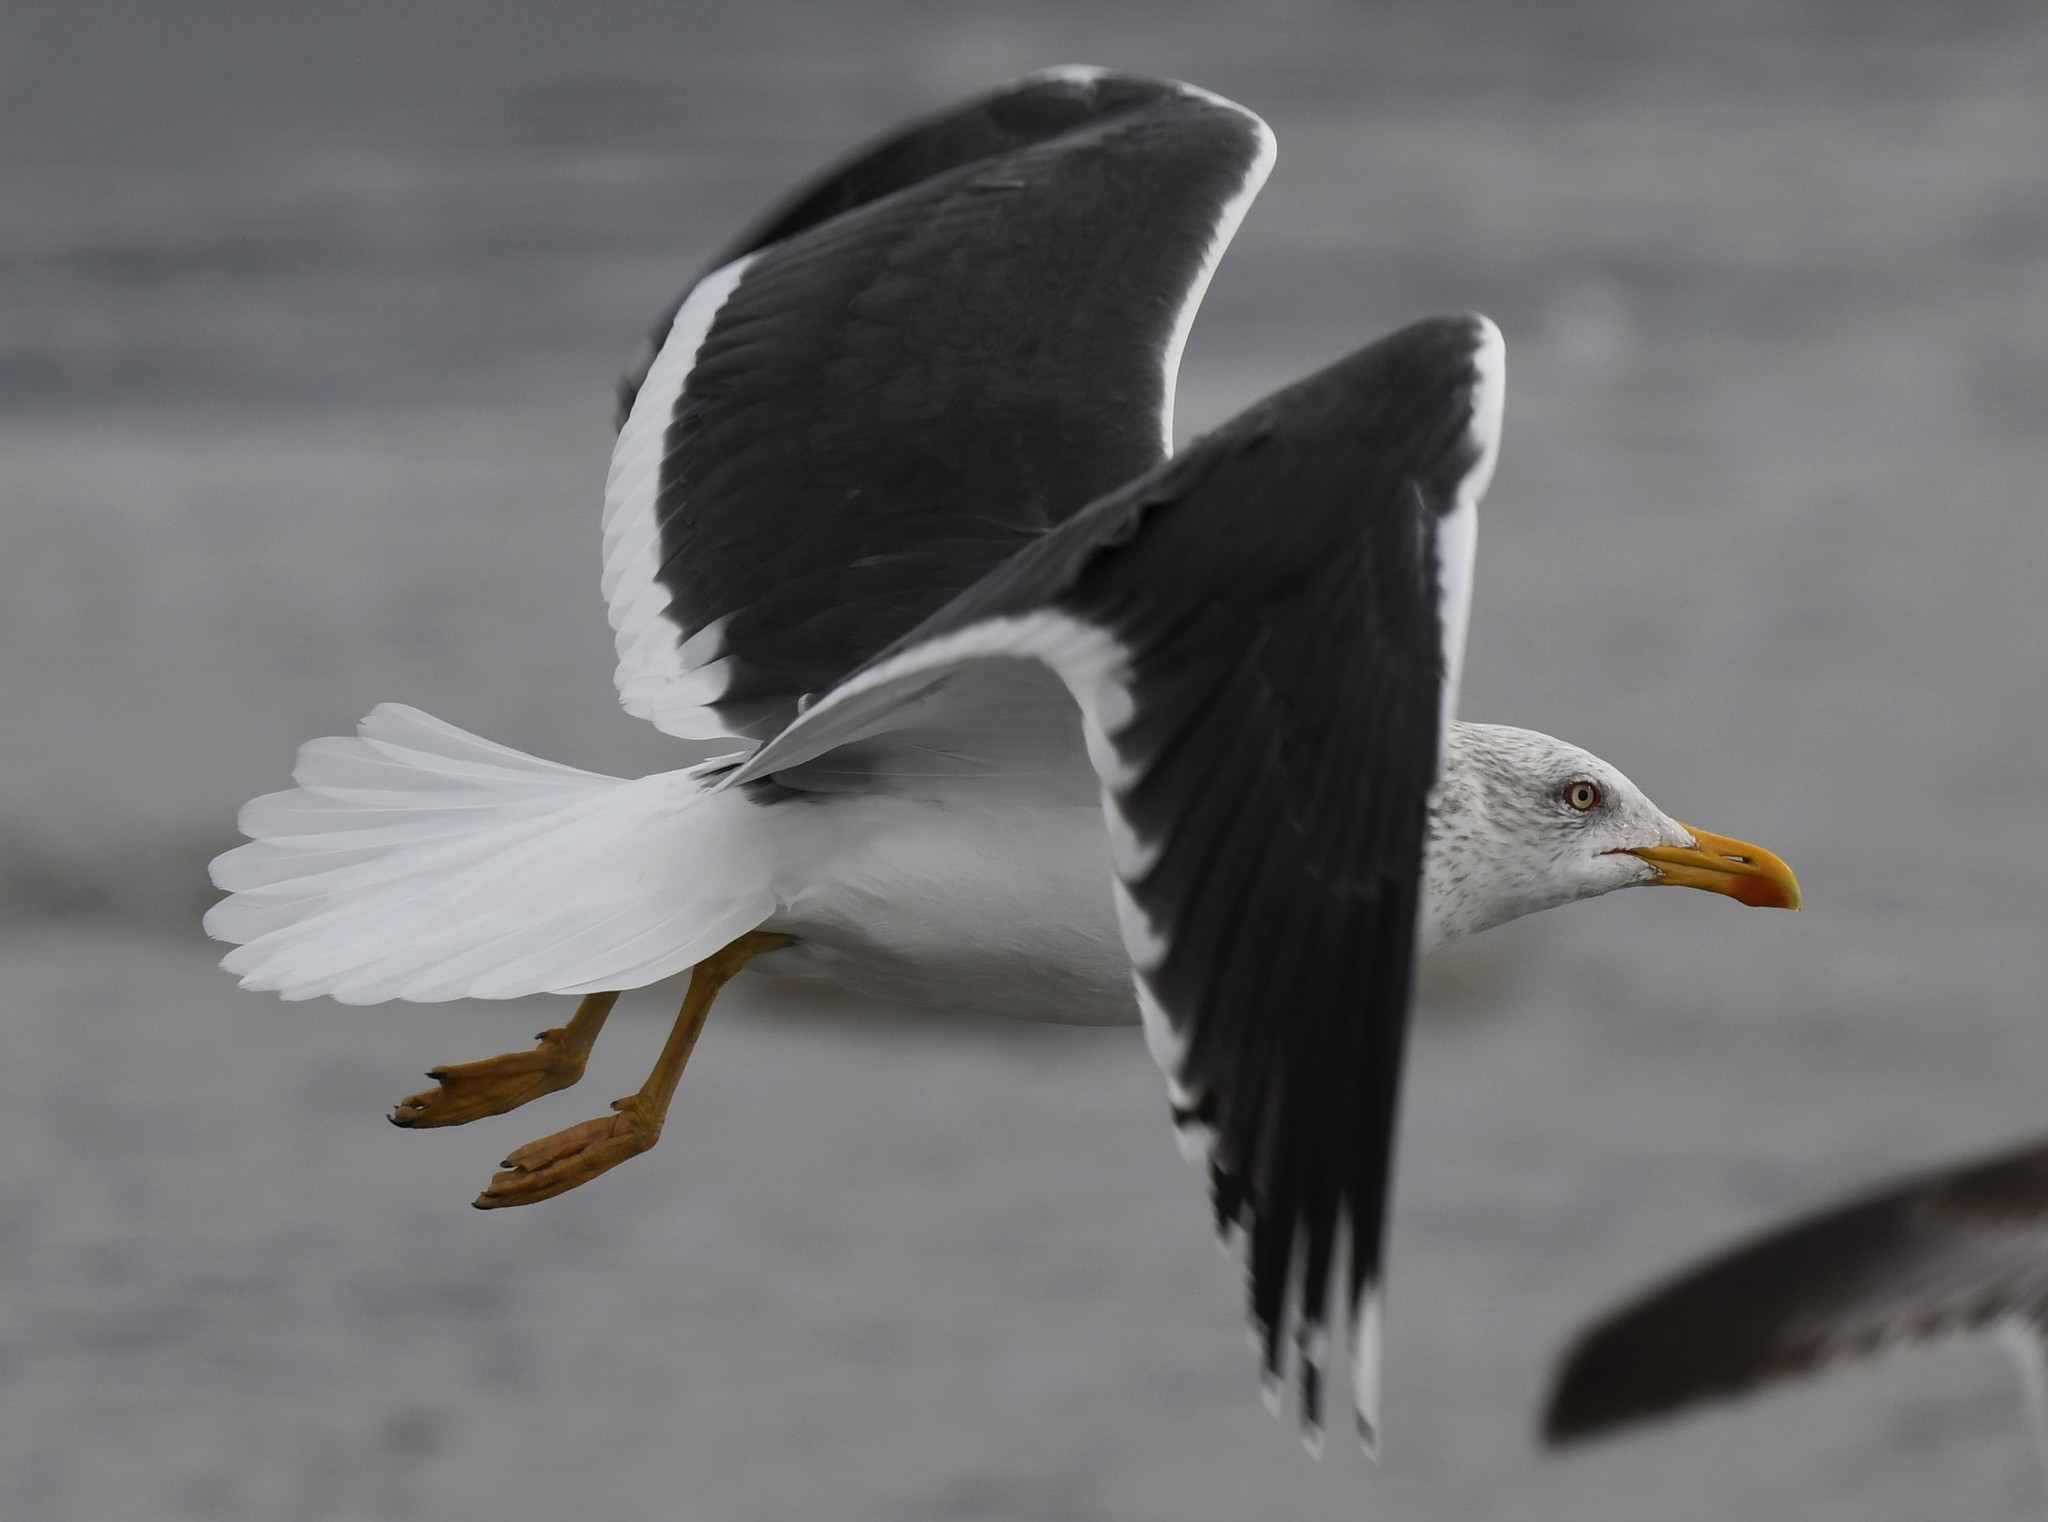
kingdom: Animalia
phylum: Chordata
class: Aves
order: Charadriiformes
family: Laridae
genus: Larus
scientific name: Larus fuscus
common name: Lesser black-backed gull
